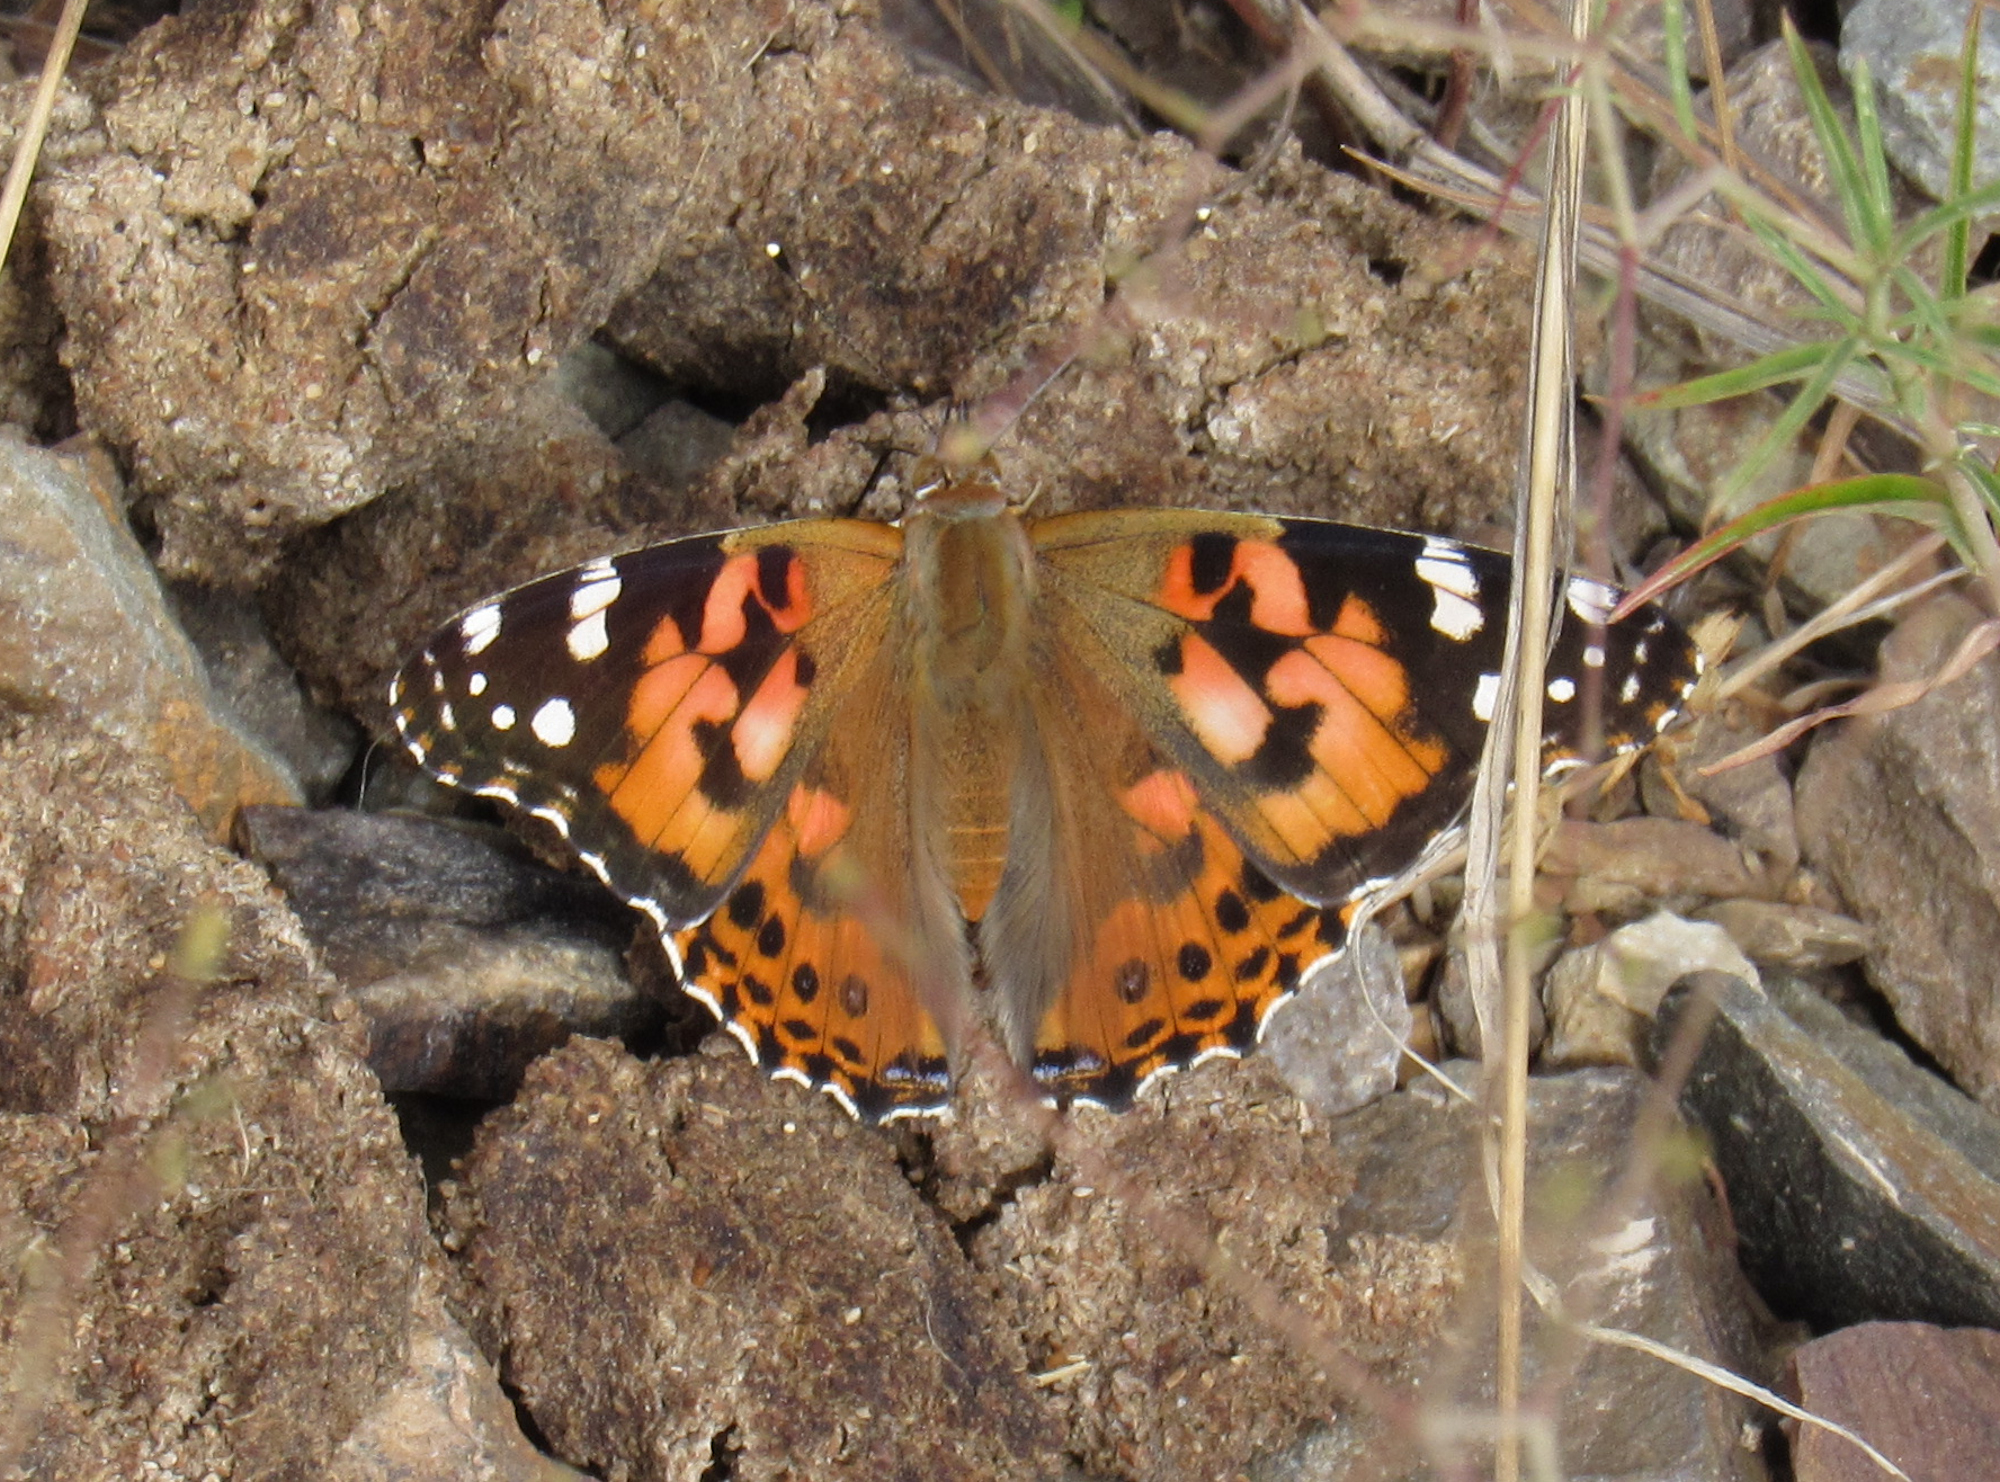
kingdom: Animalia
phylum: Arthropoda
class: Insecta
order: Lepidoptera
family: Nymphalidae
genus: Vanessa
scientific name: Vanessa cardui
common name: Painted lady
